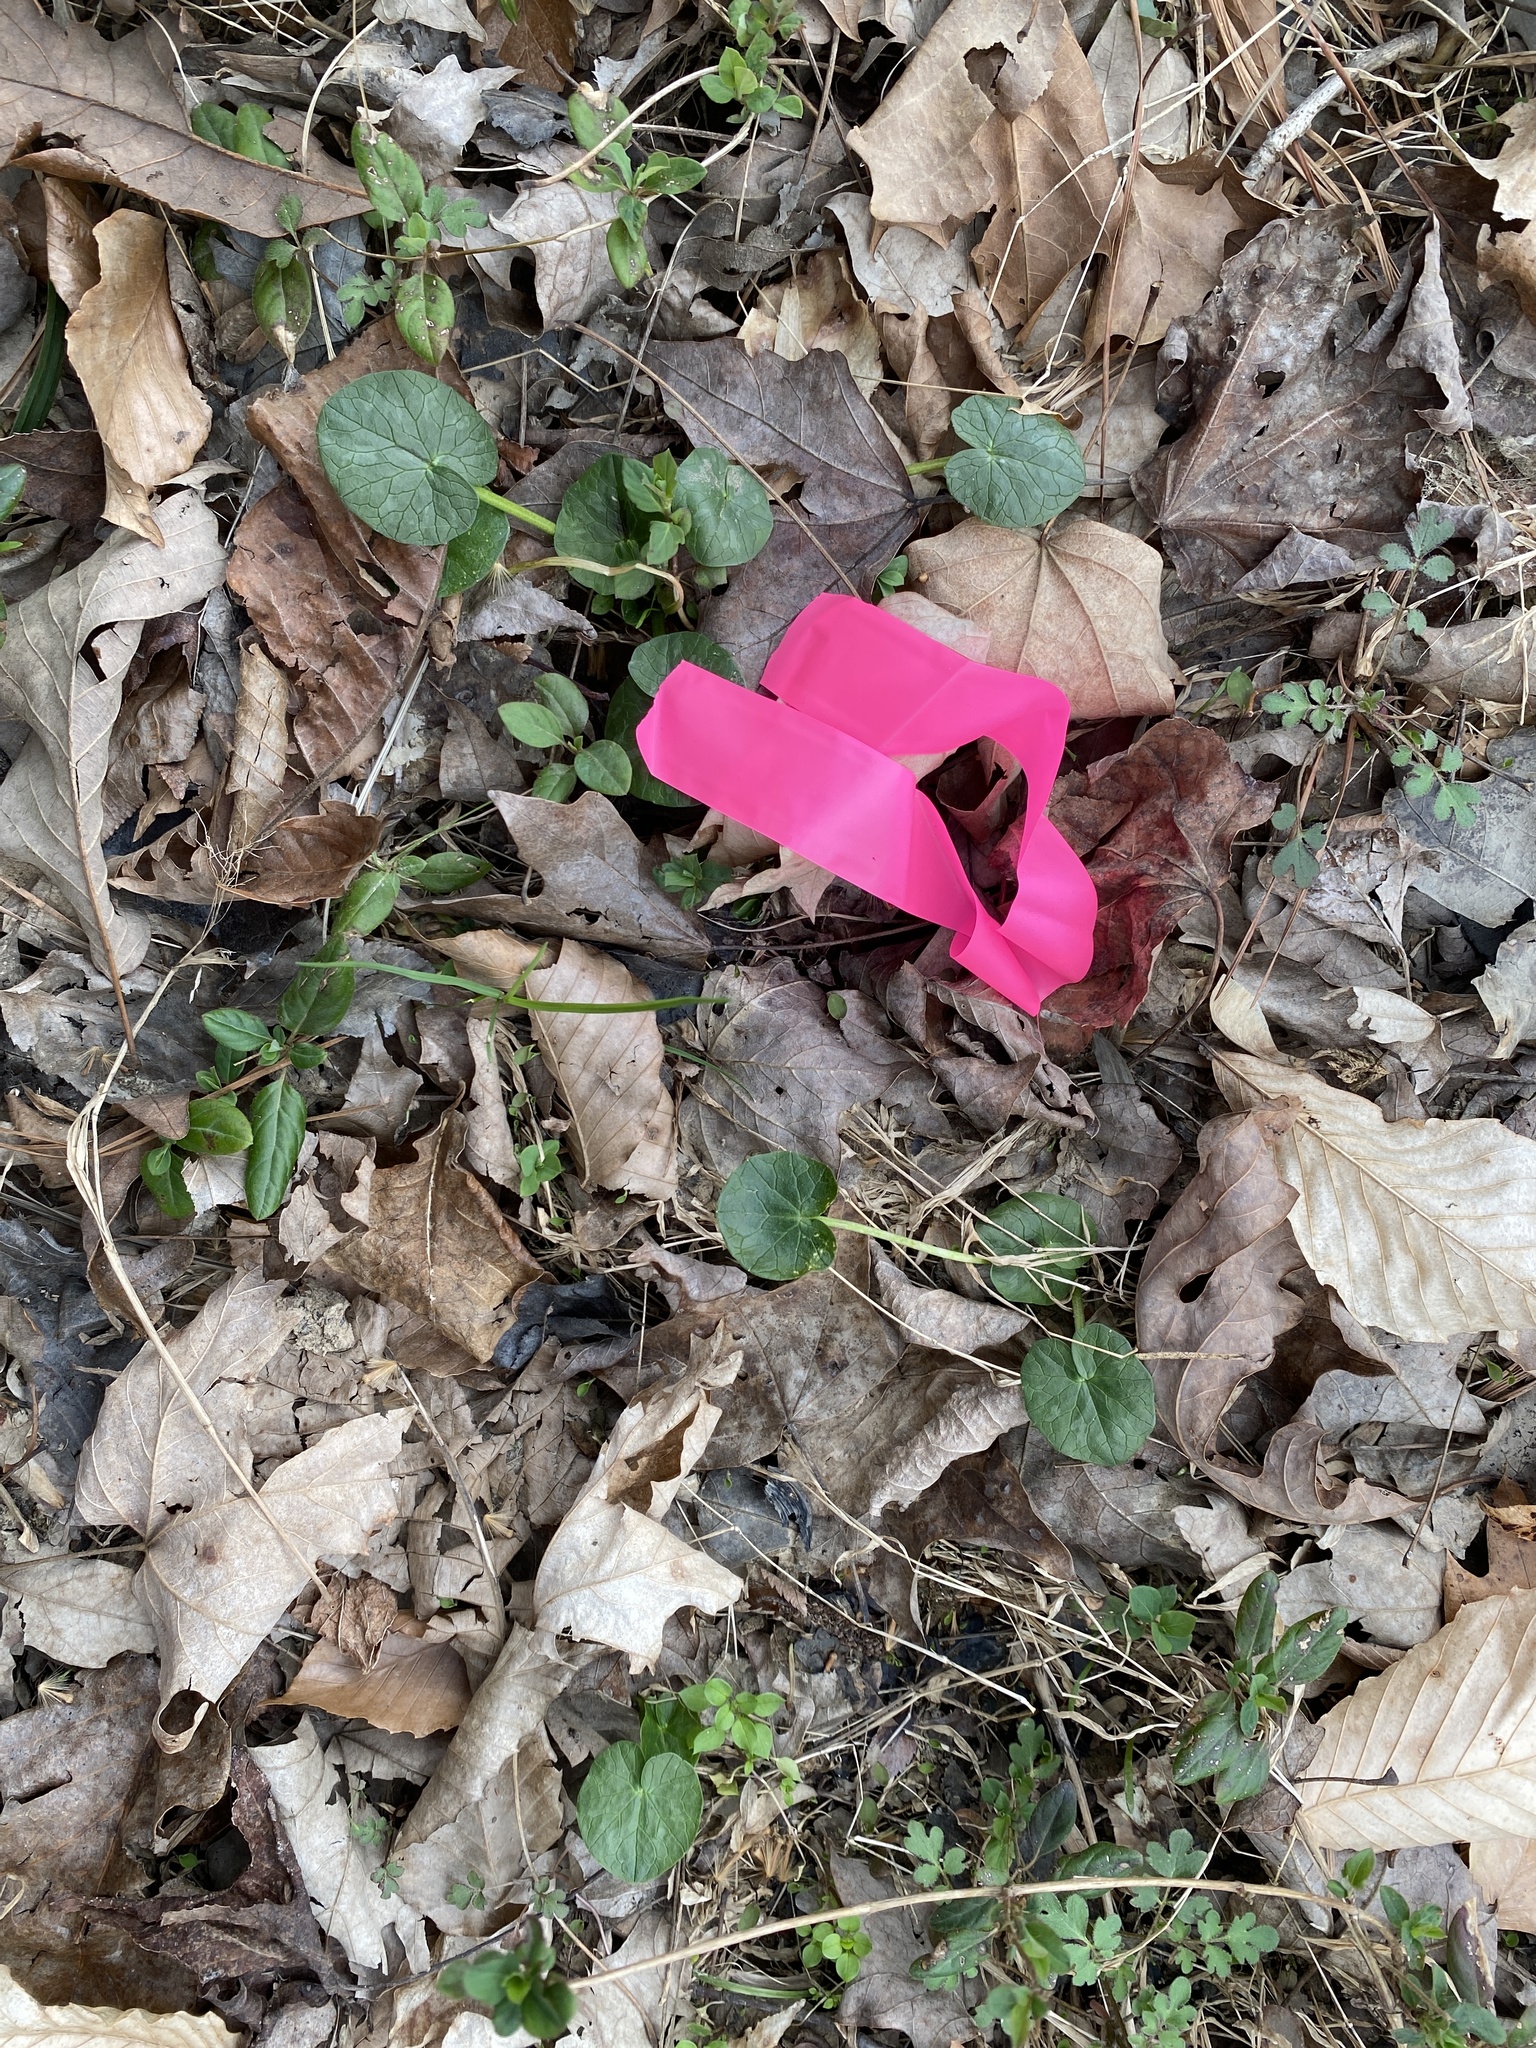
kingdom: Plantae
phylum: Tracheophyta
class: Magnoliopsida
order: Ranunculales
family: Ranunculaceae
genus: Ficaria
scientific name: Ficaria verna
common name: Lesser celandine
